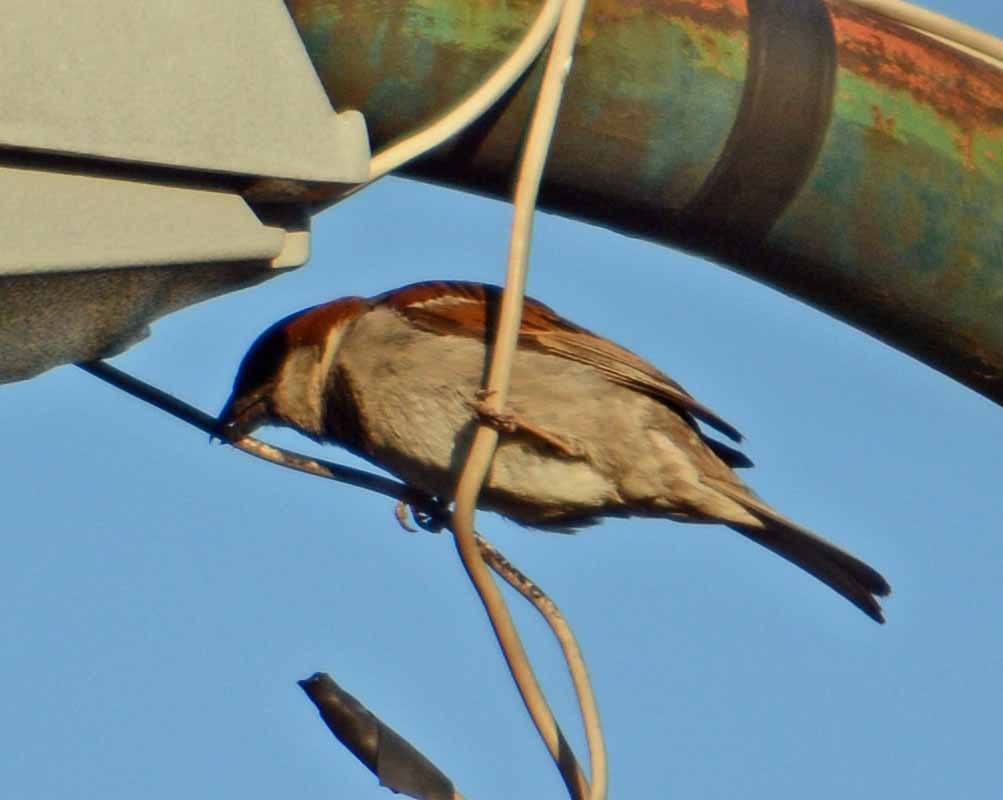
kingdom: Animalia
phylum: Chordata
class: Aves
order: Passeriformes
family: Passeridae
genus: Passer
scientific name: Passer domesticus
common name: House sparrow
